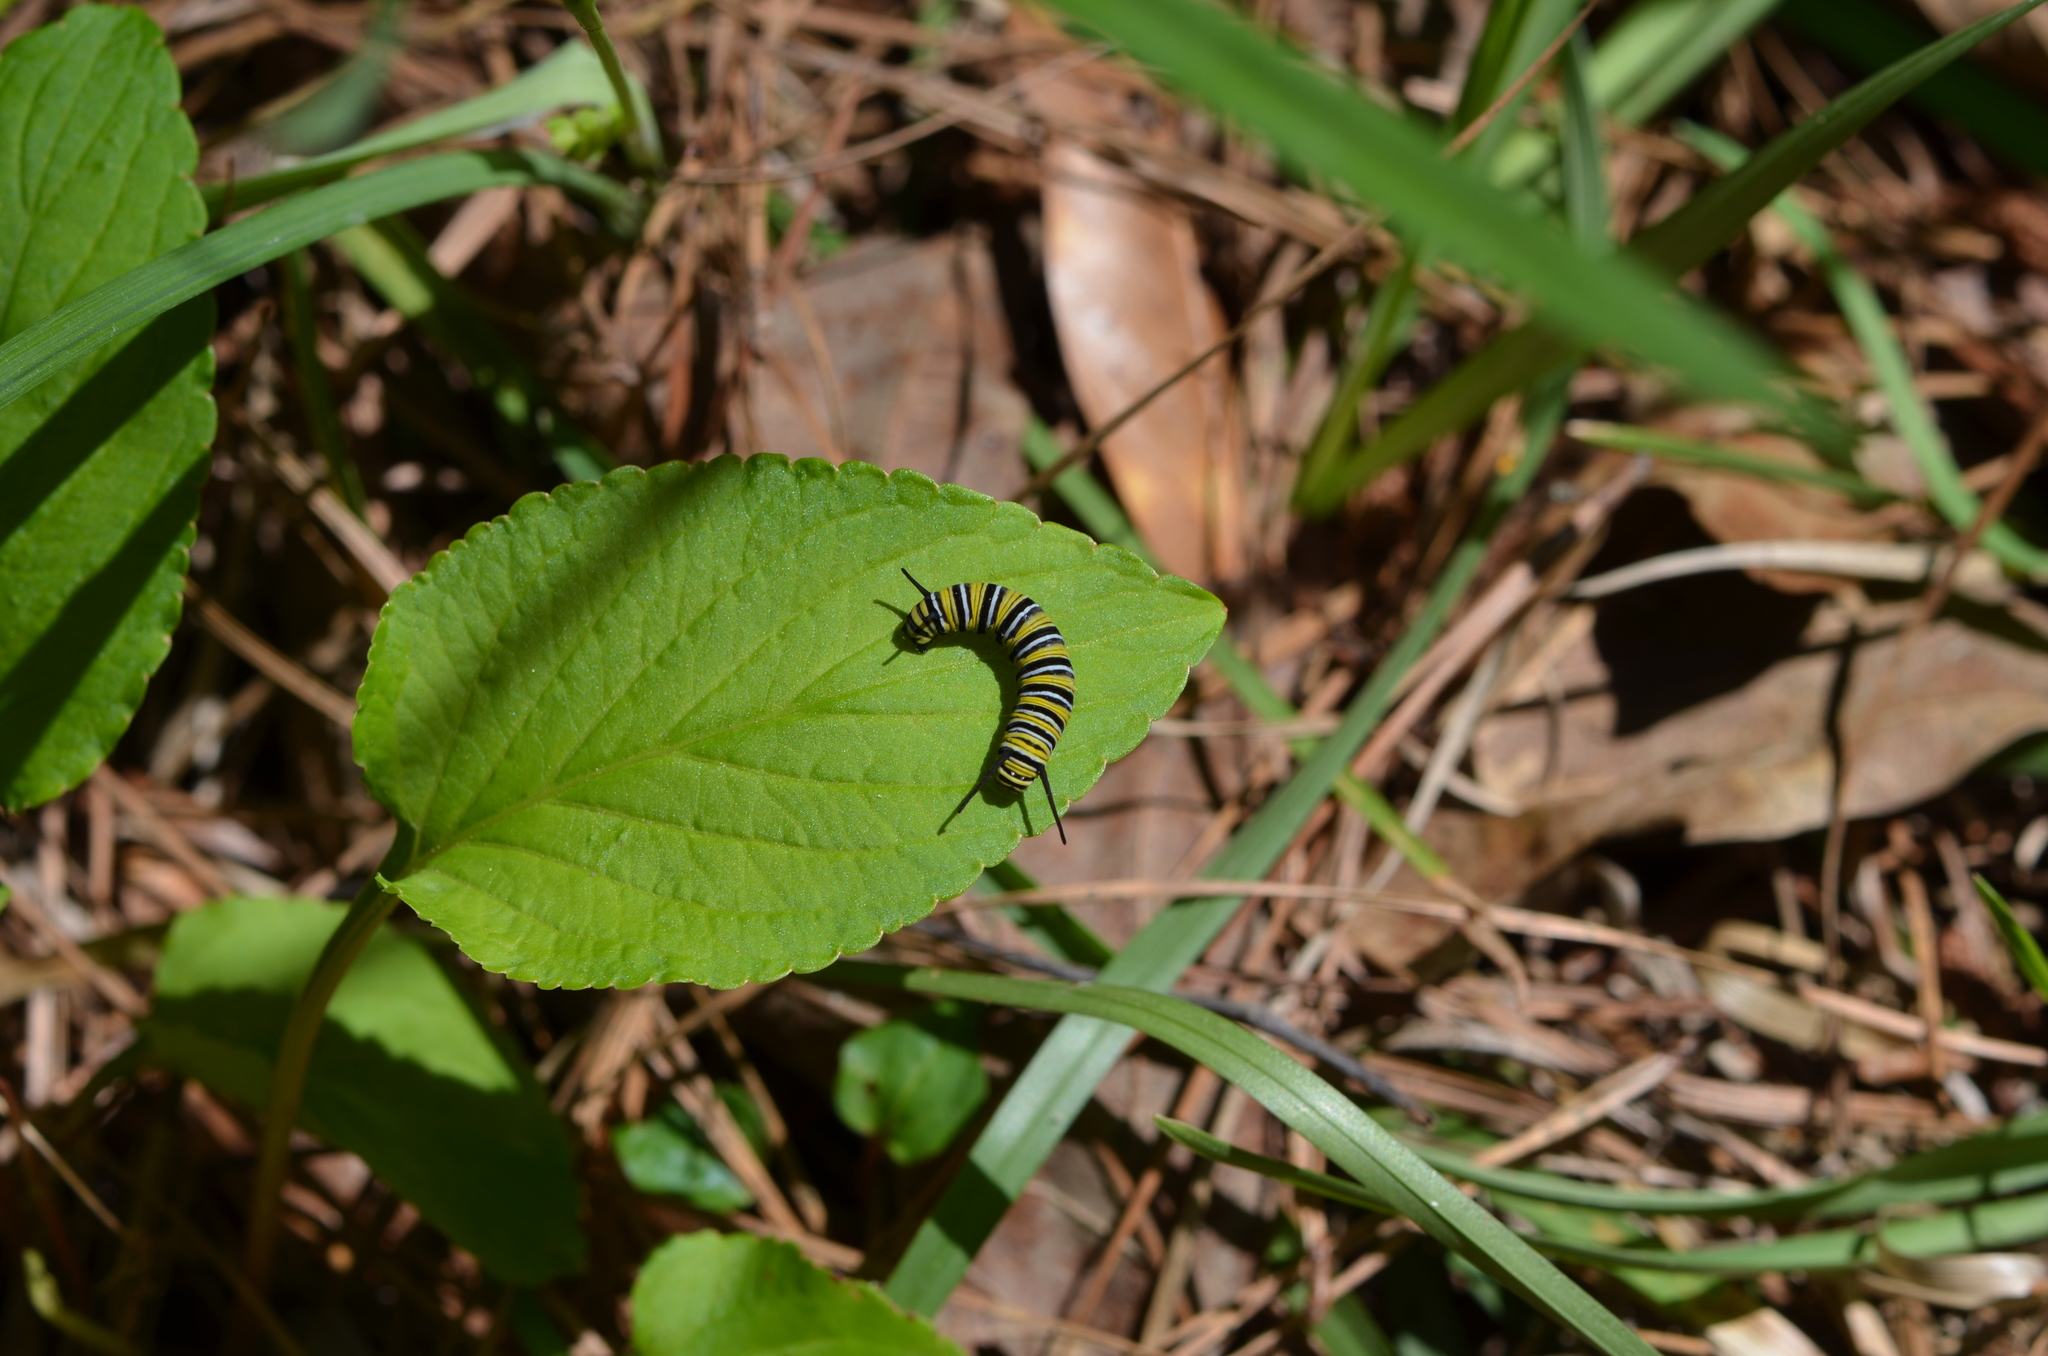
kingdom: Animalia
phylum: Arthropoda
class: Insecta
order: Lepidoptera
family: Nymphalidae
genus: Danaus
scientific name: Danaus plexippus
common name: Monarch
